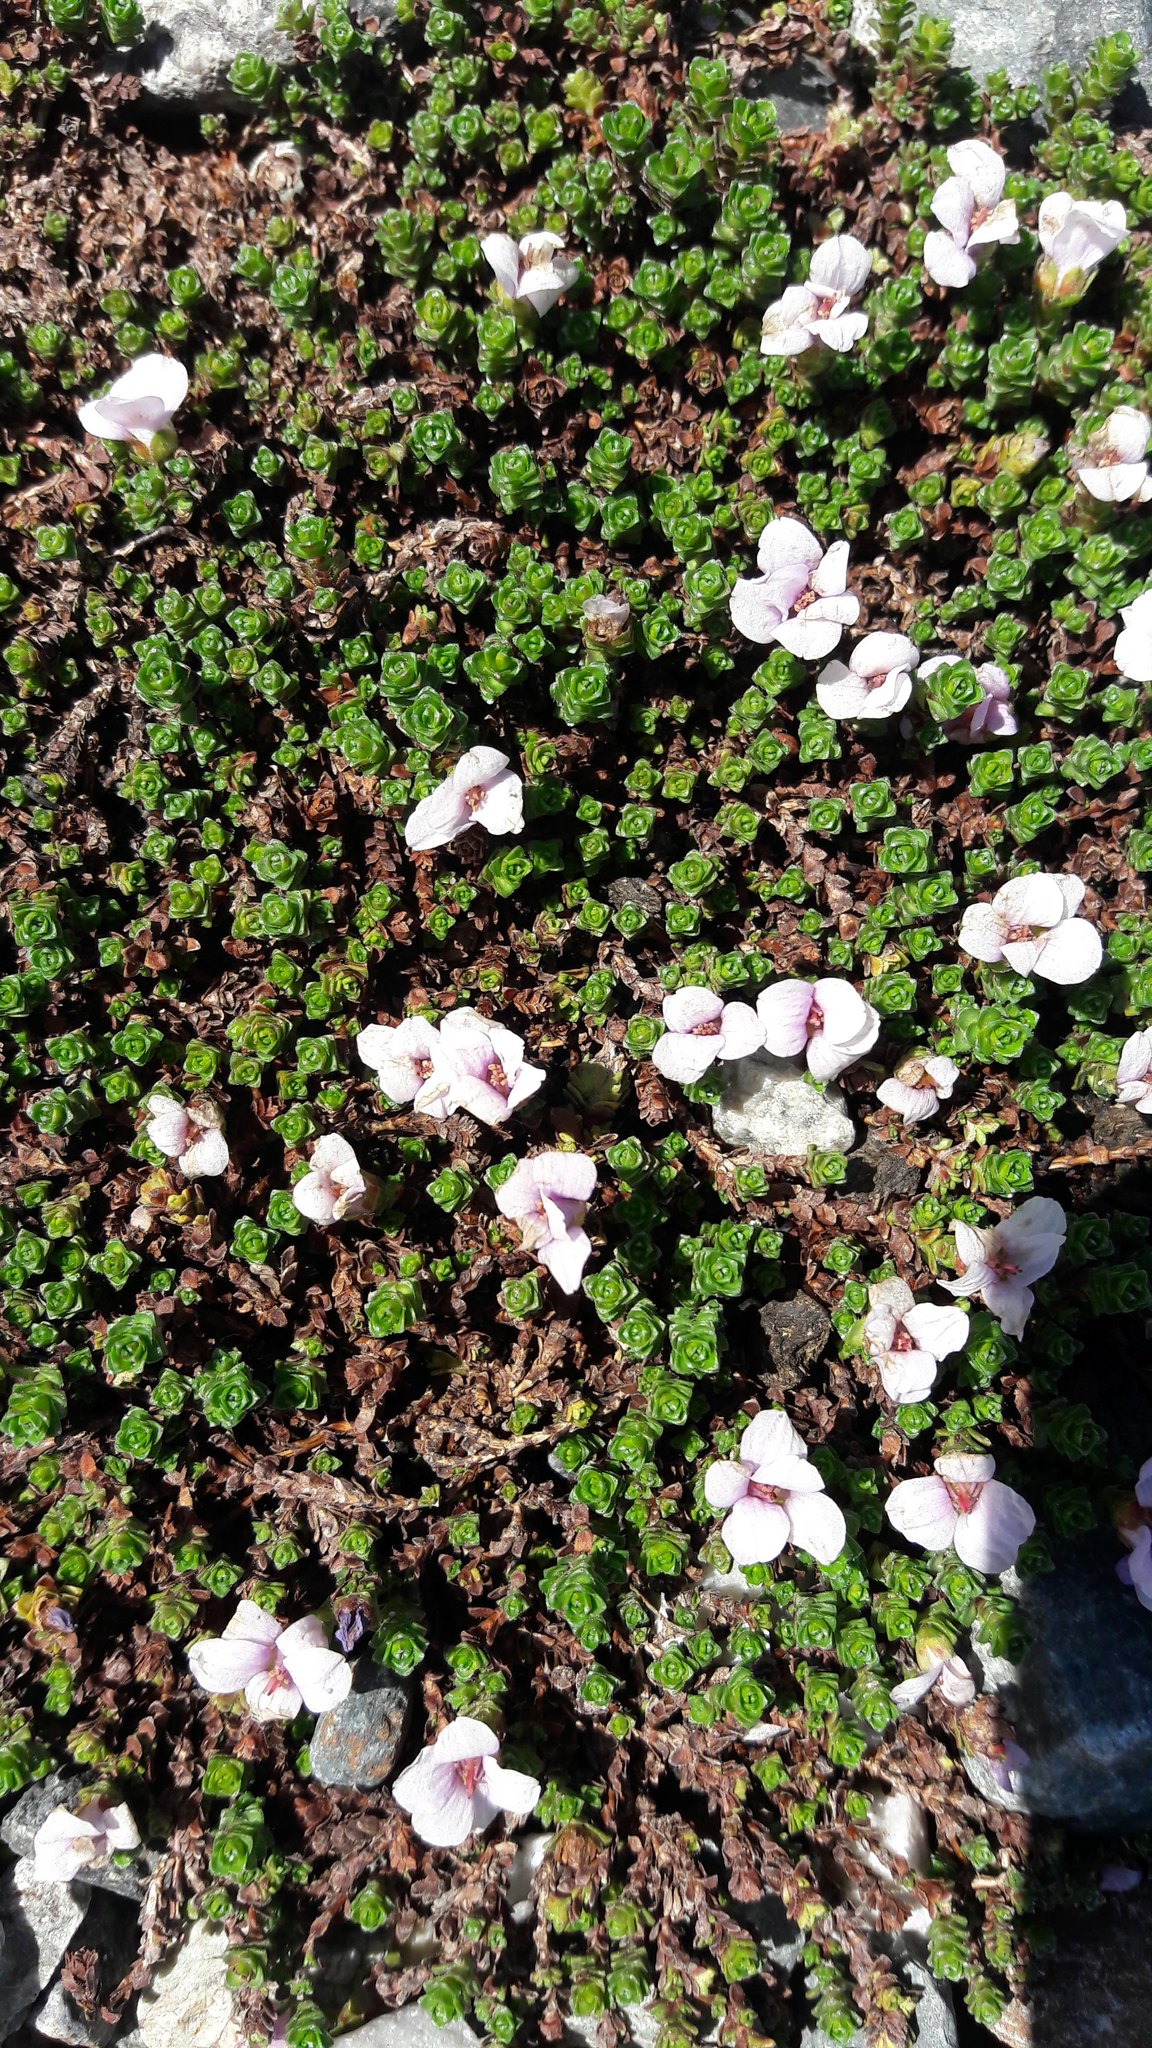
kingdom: Plantae
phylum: Tracheophyta
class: Magnoliopsida
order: Saxifragales
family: Saxifragaceae
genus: Saxifraga
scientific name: Saxifraga oppositifolia
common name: Purple saxifrage
